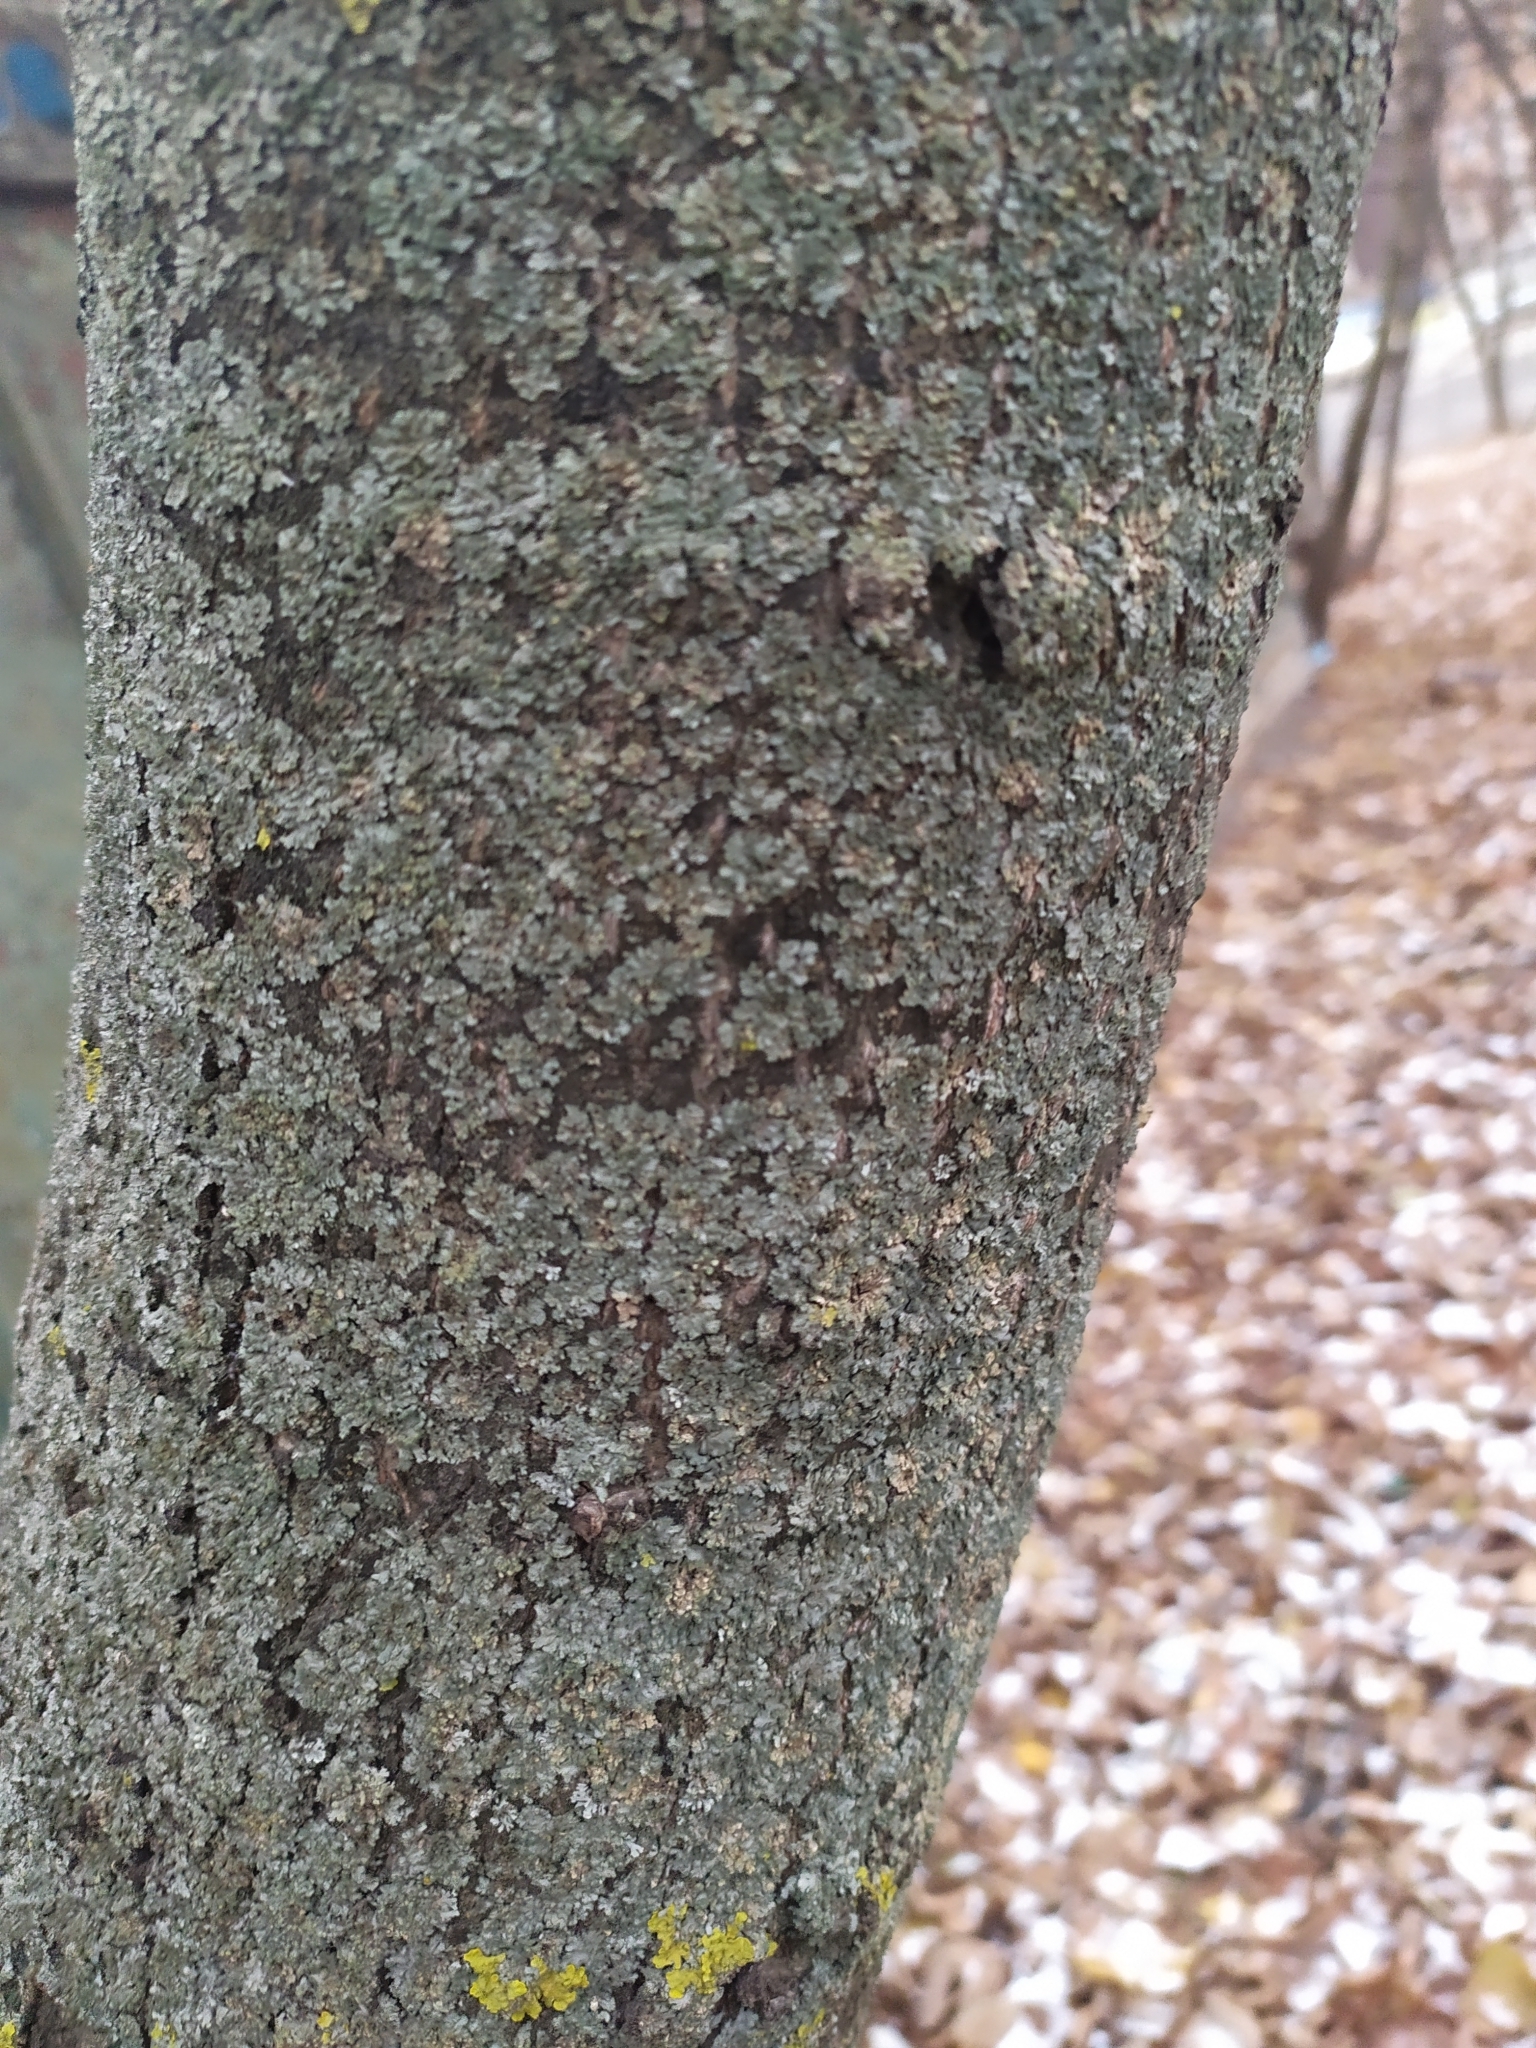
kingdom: Fungi
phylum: Ascomycota
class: Lecanoromycetes
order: Caliciales
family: Physciaceae
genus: Phaeophyscia
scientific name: Phaeophyscia orbicularis
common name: Mealy shadow lichen
